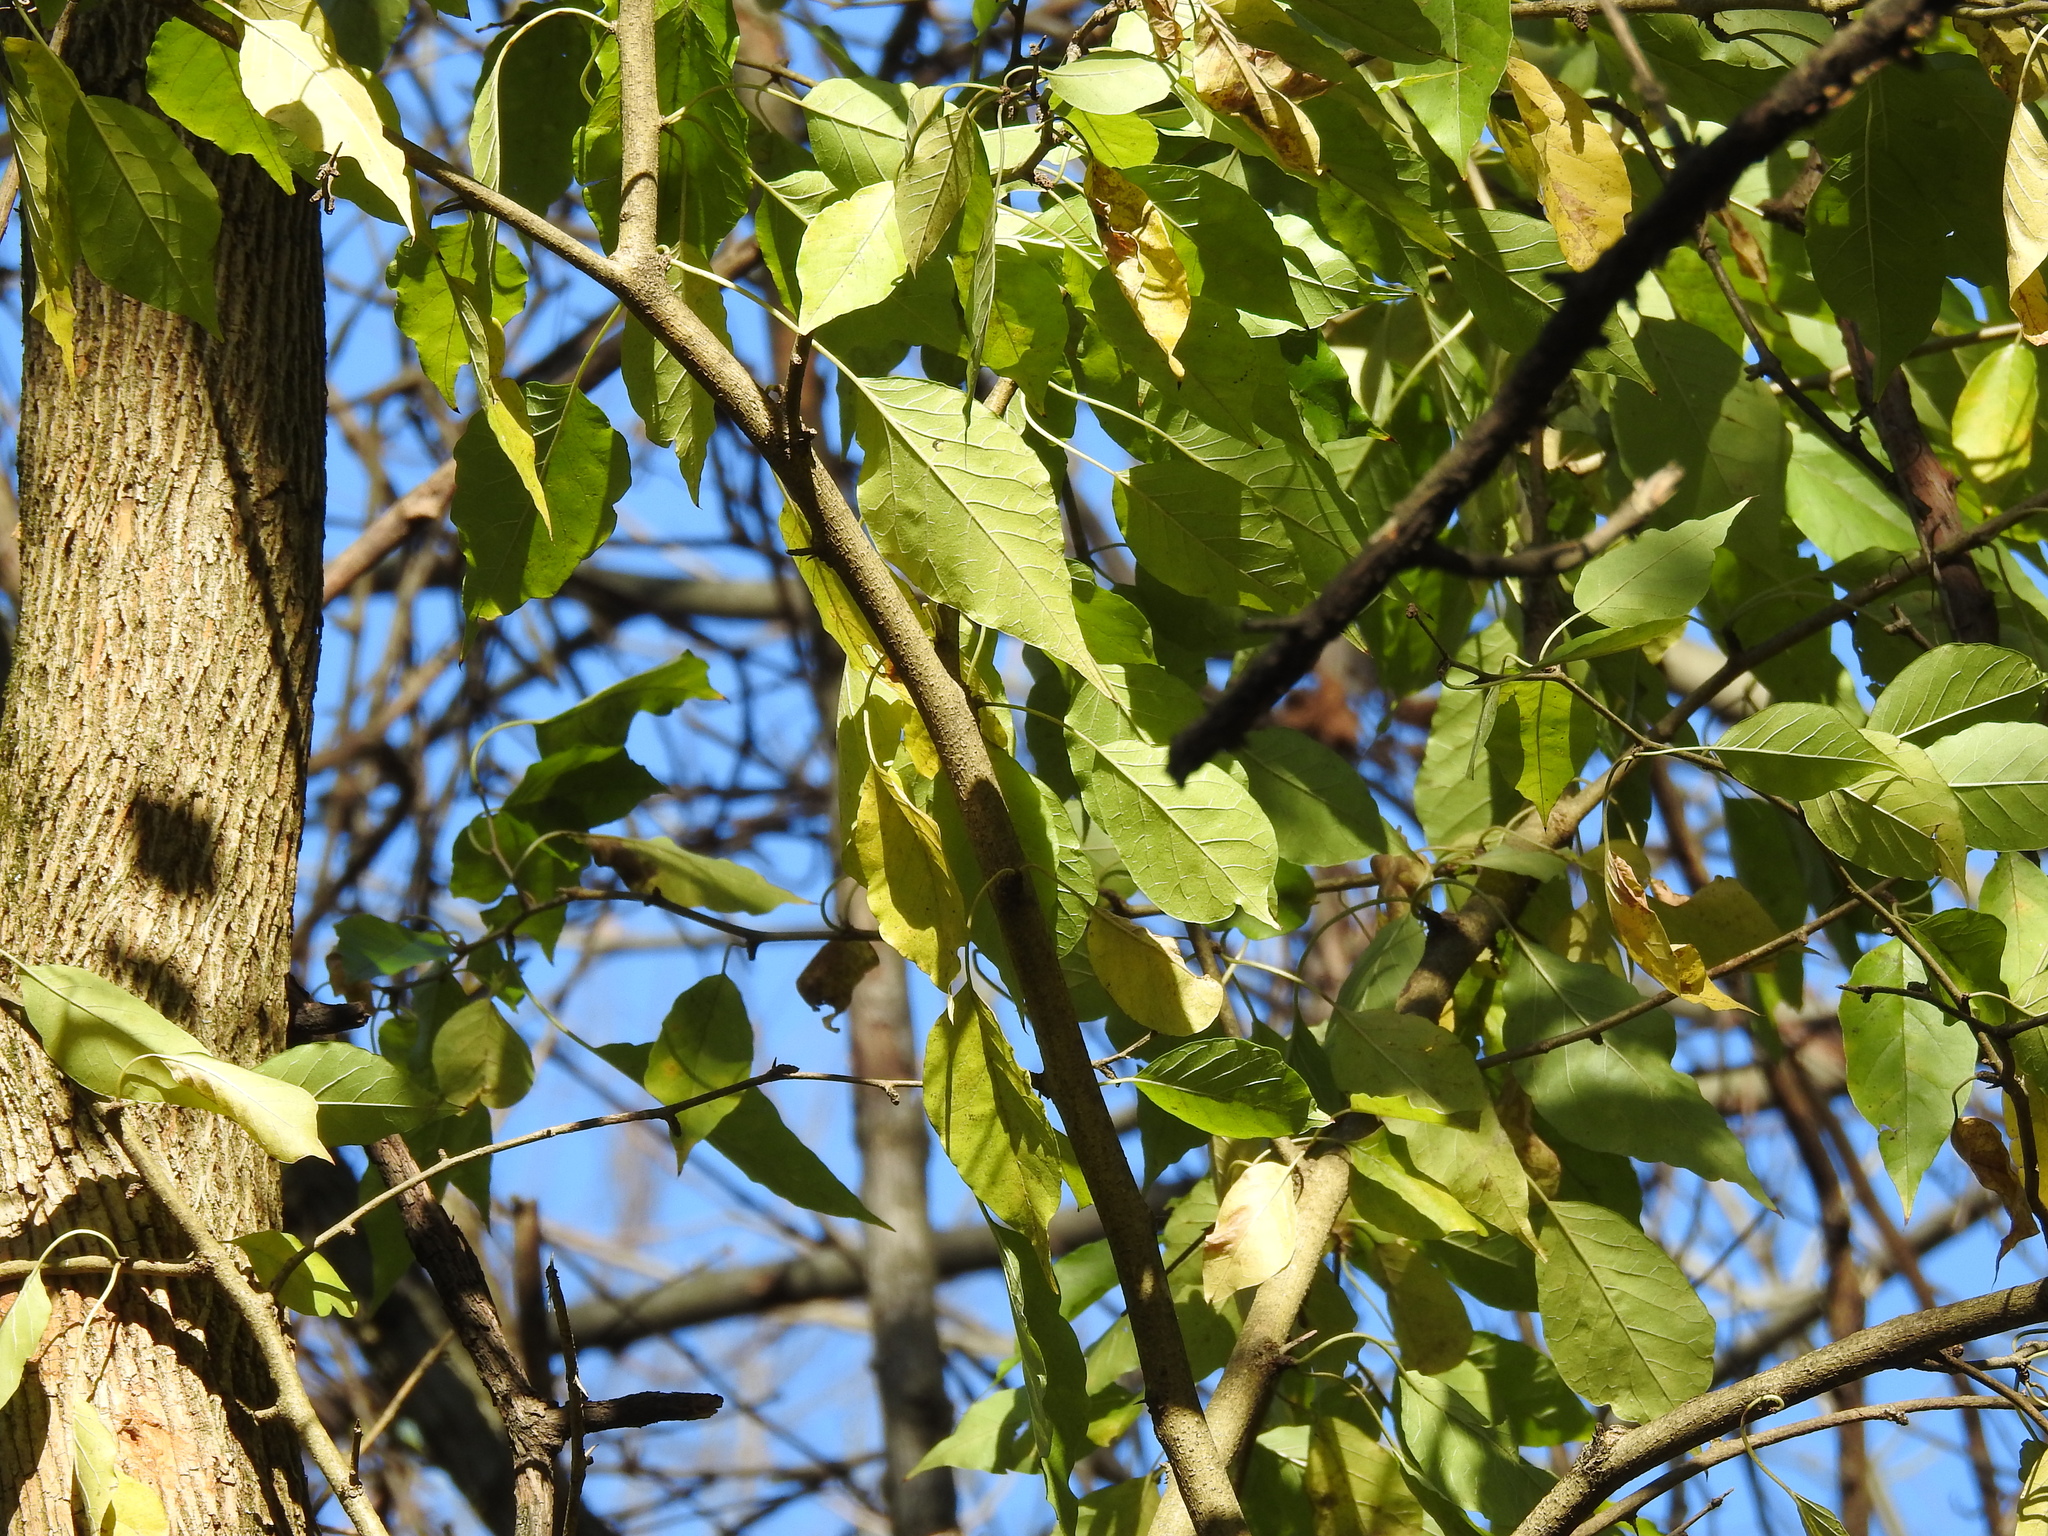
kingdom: Plantae
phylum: Tracheophyta
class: Magnoliopsida
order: Rosales
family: Moraceae
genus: Maclura
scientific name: Maclura pomifera
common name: Osage-orange
